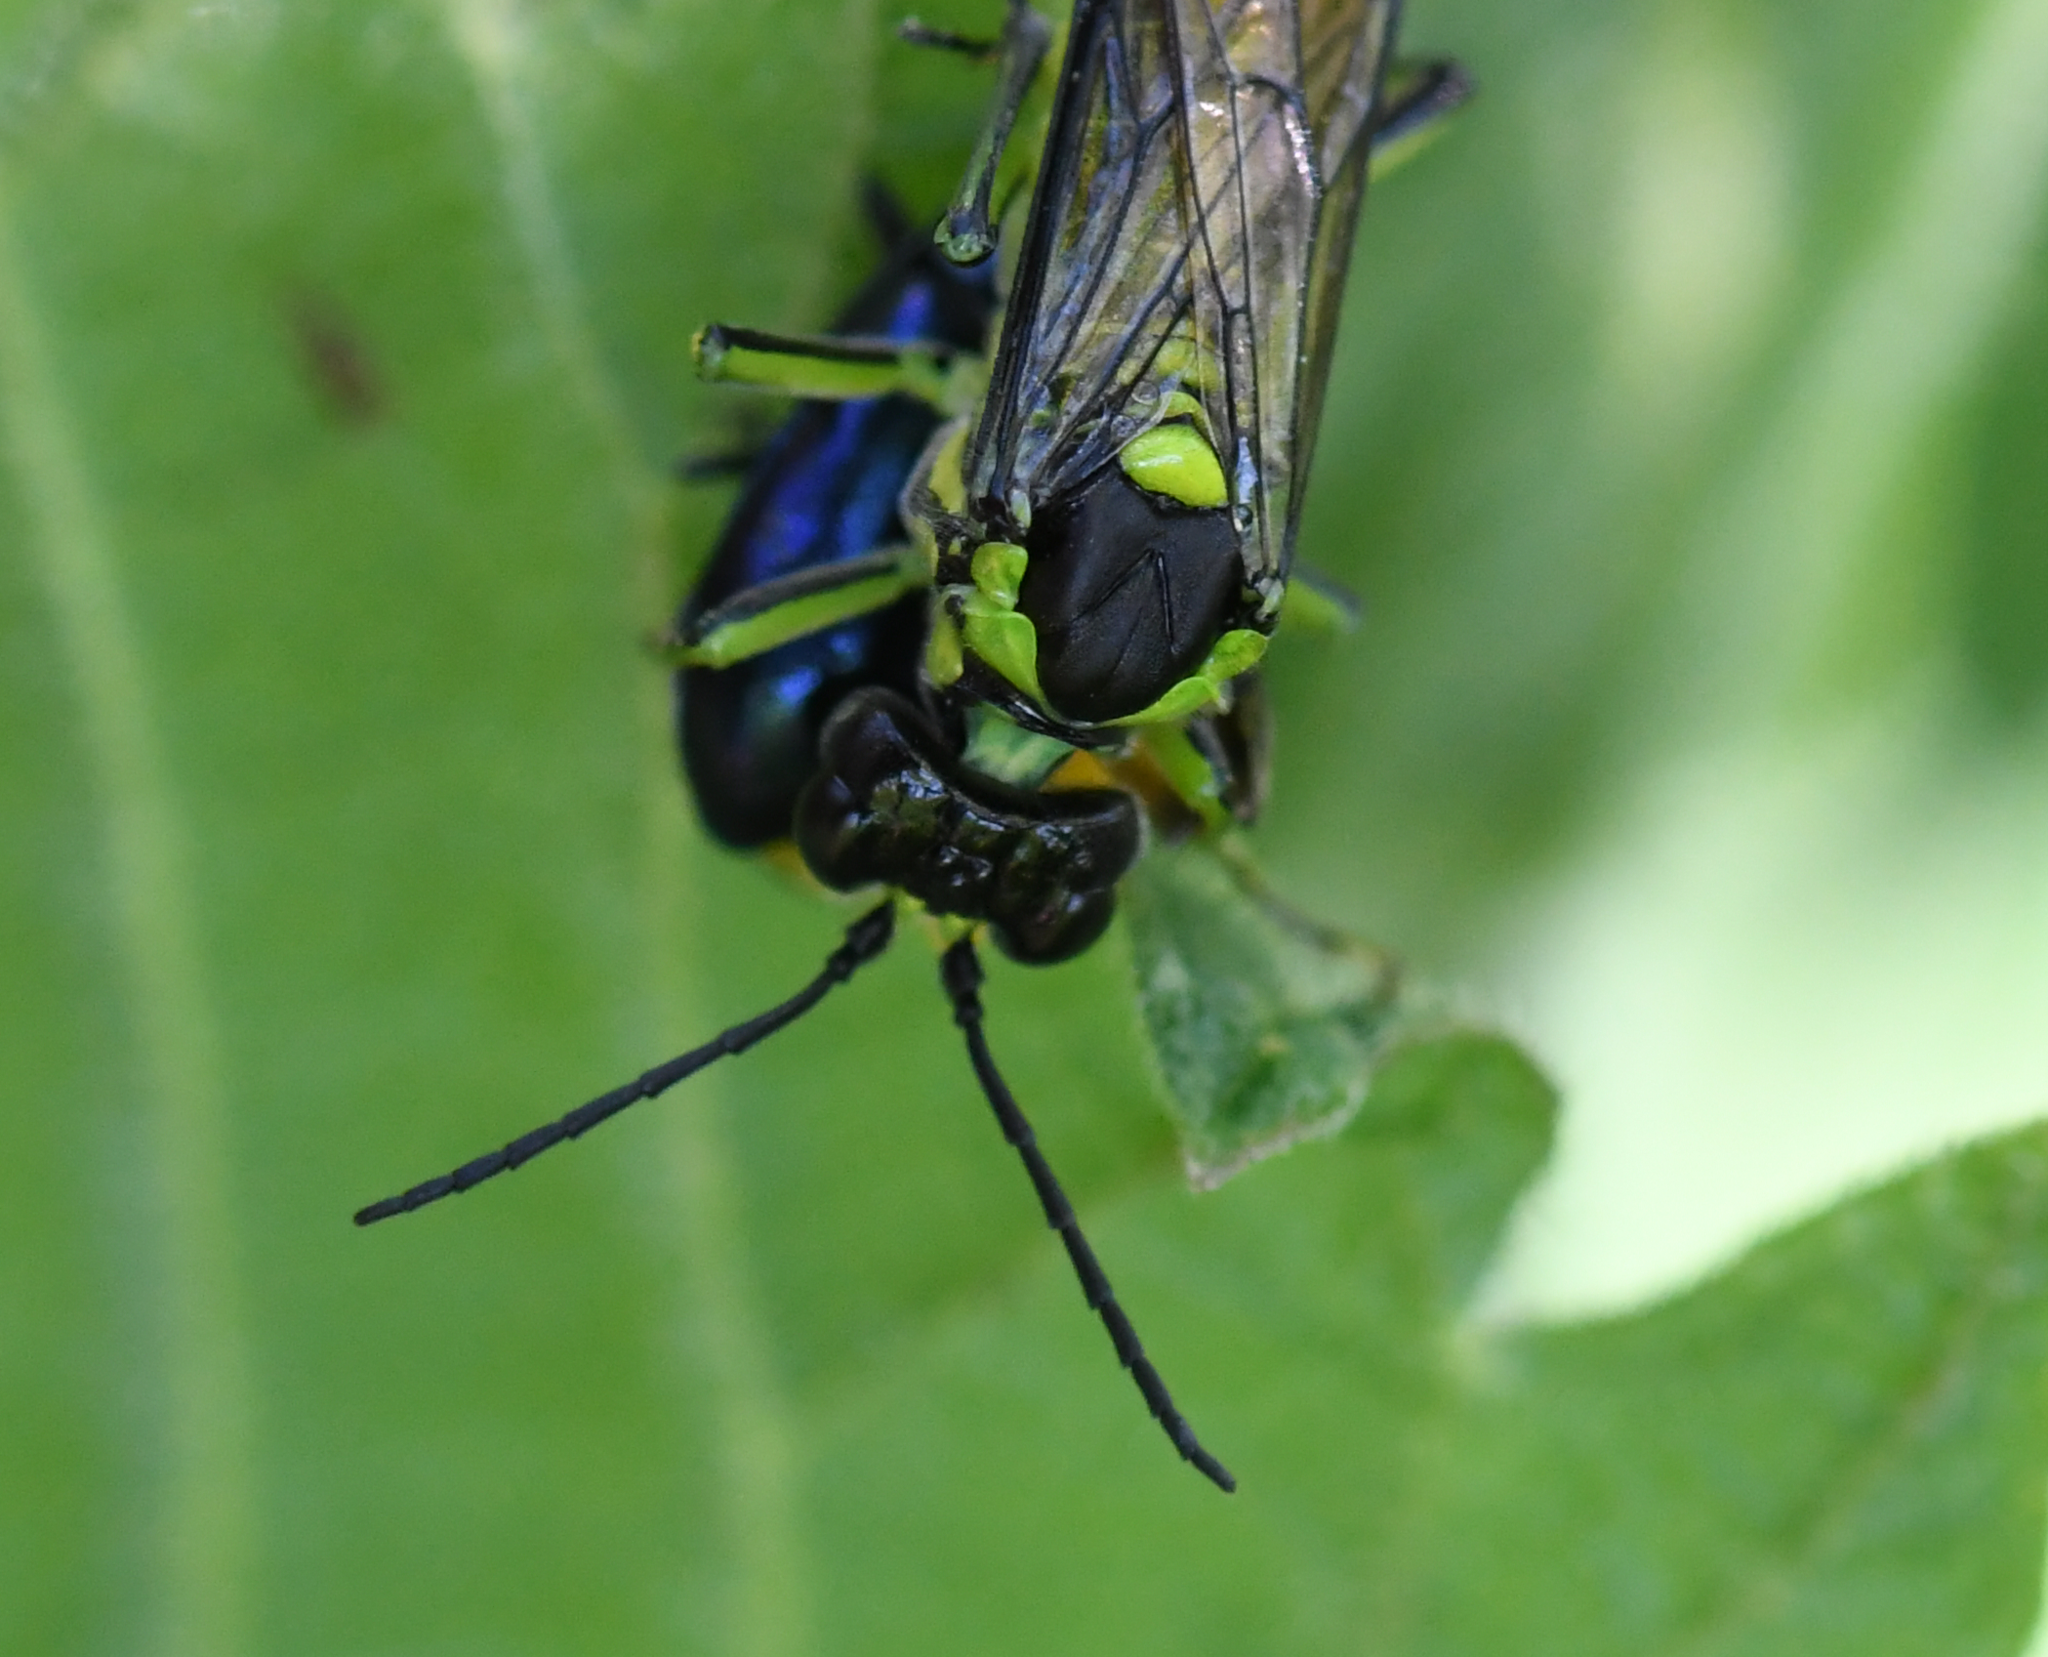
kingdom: Animalia
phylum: Arthropoda
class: Insecta
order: Hymenoptera
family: Tenthredinidae
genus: Tenthredo
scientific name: Tenthredo mesomela
